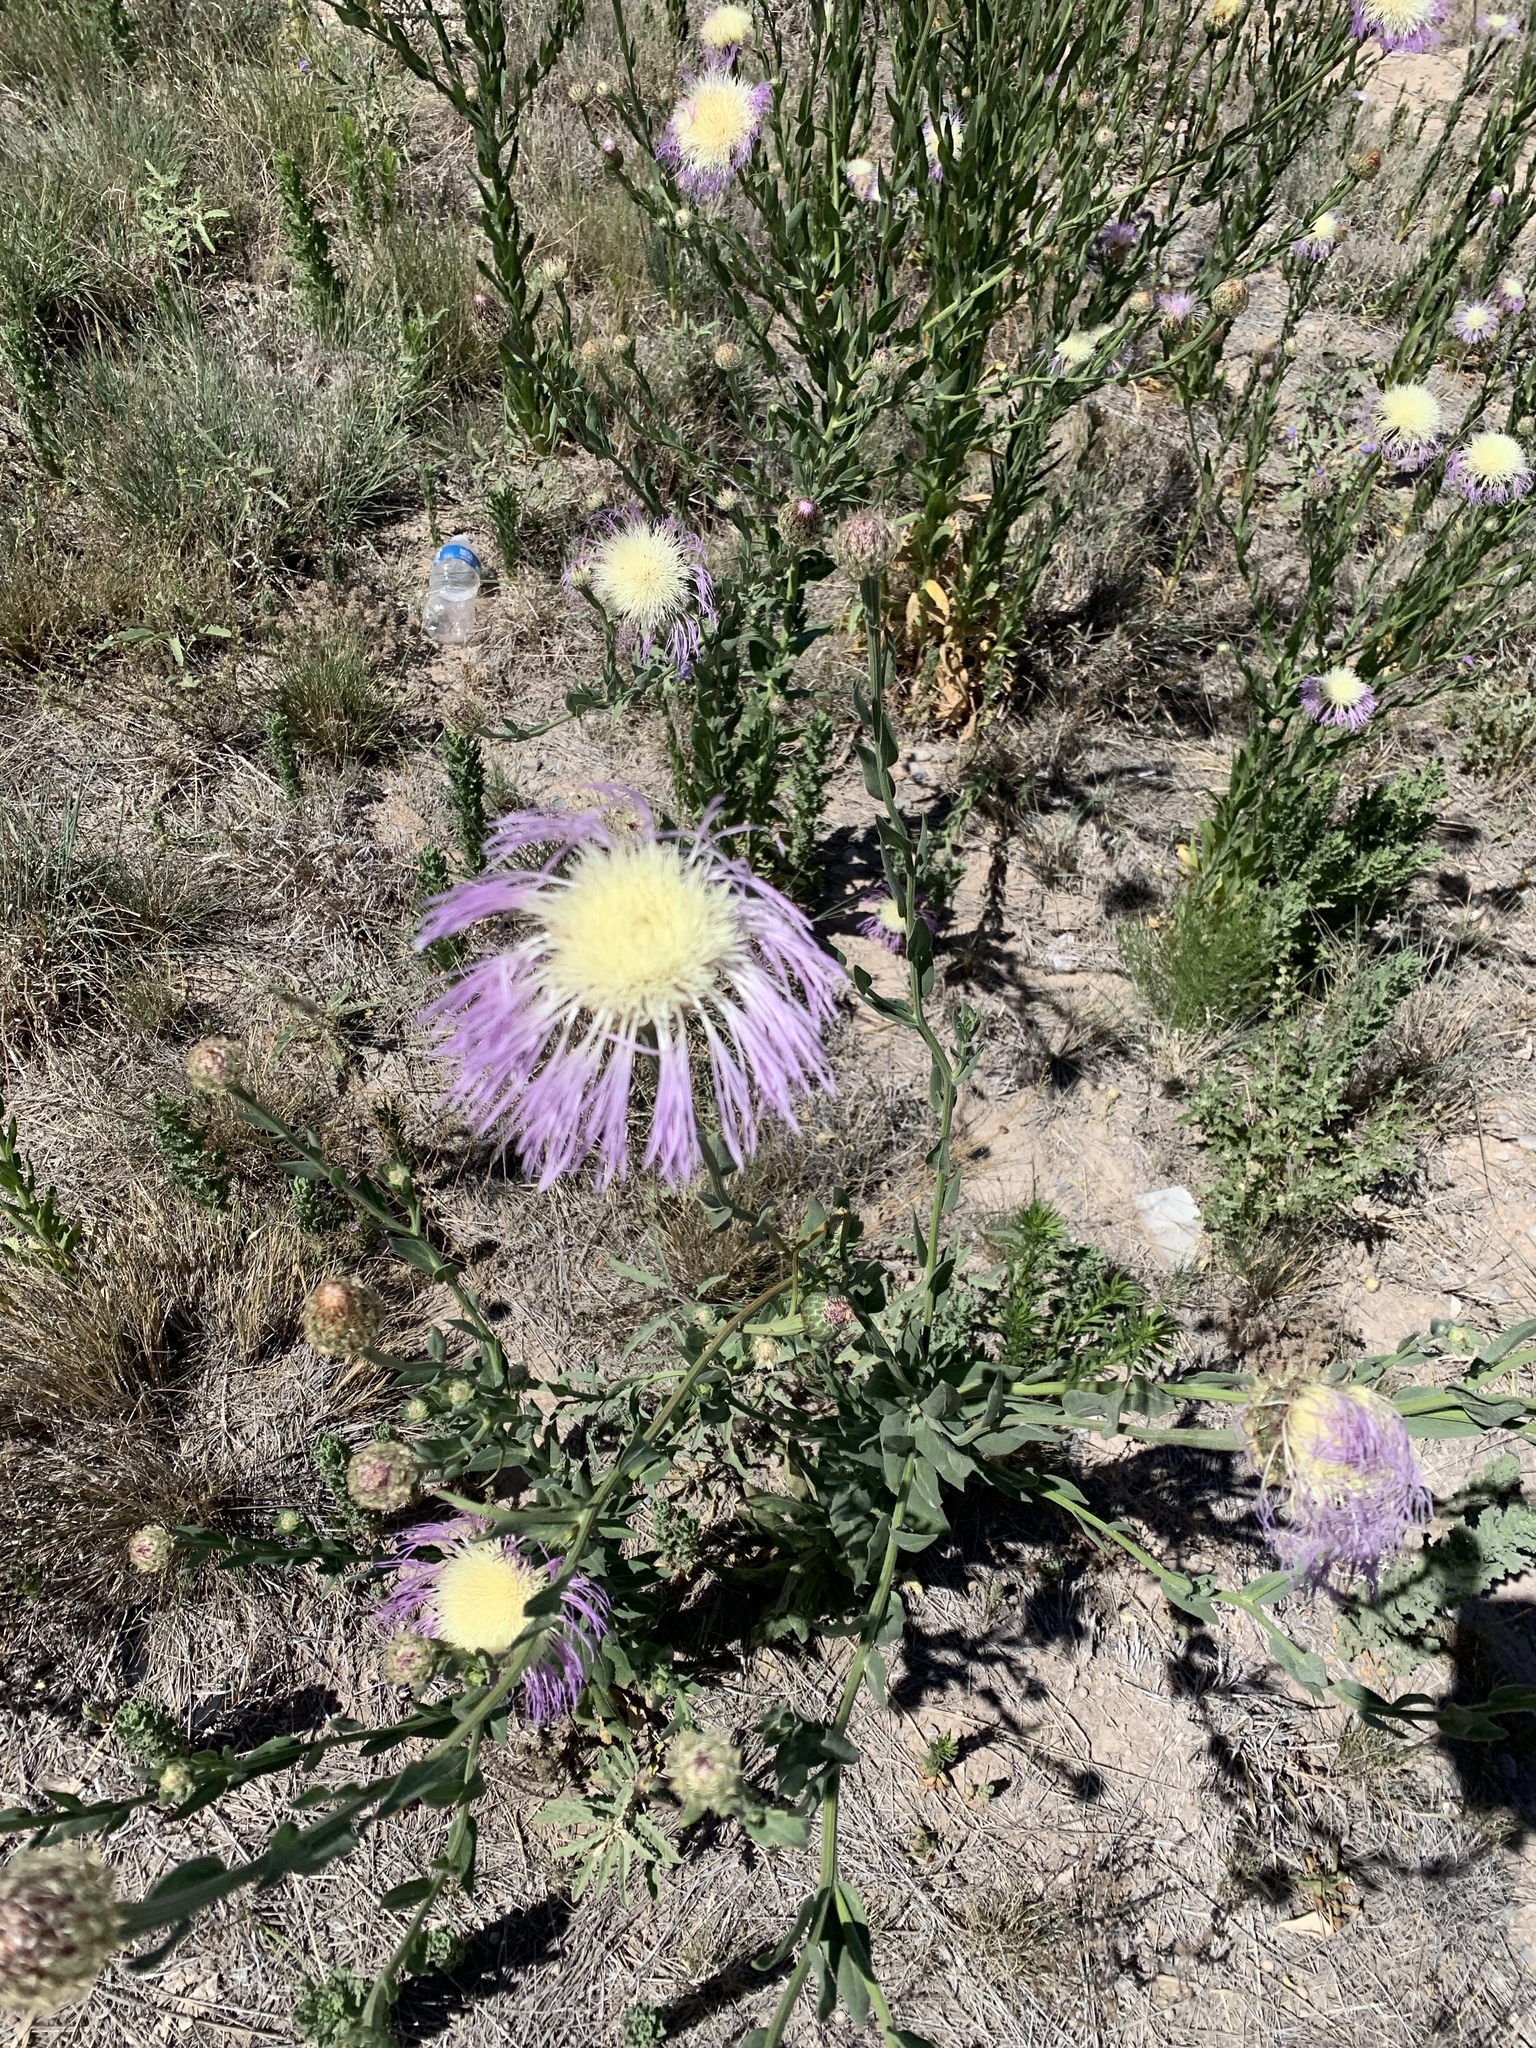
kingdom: Plantae
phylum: Tracheophyta
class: Magnoliopsida
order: Asterales
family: Asteraceae
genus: Plectocephalus
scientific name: Plectocephalus americanus
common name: American basket-flower
